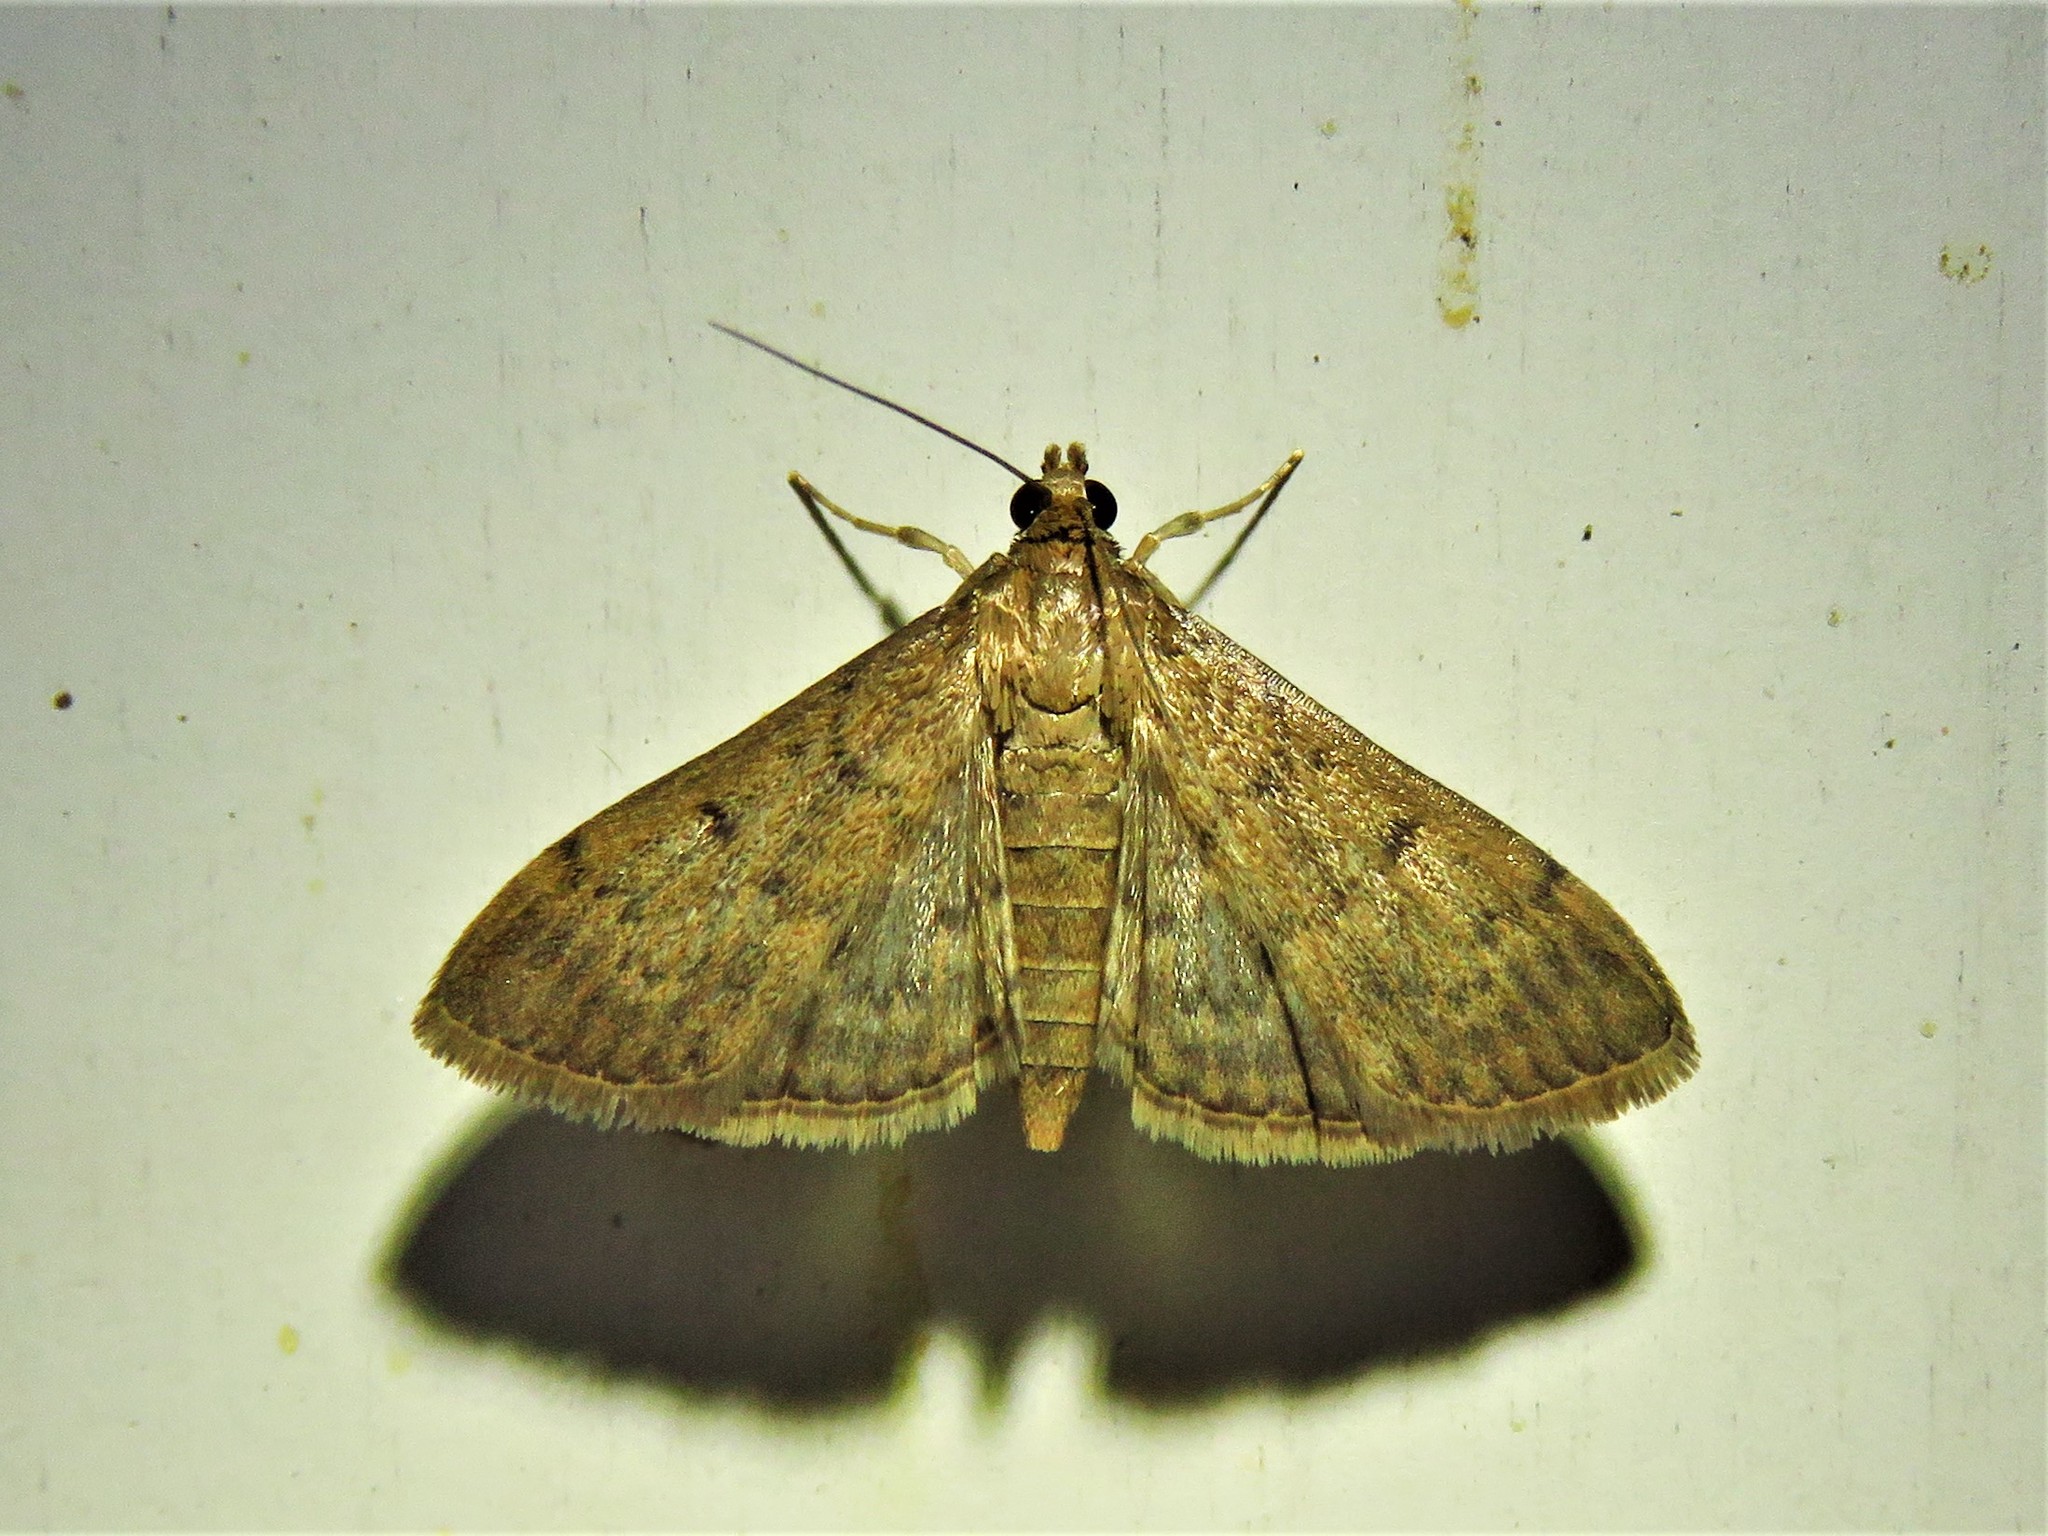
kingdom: Animalia
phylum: Arthropoda
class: Insecta
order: Lepidoptera
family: Crambidae
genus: Herpetogramma
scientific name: Herpetogramma phaeopteralis
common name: Dusky herpetogramma moth
